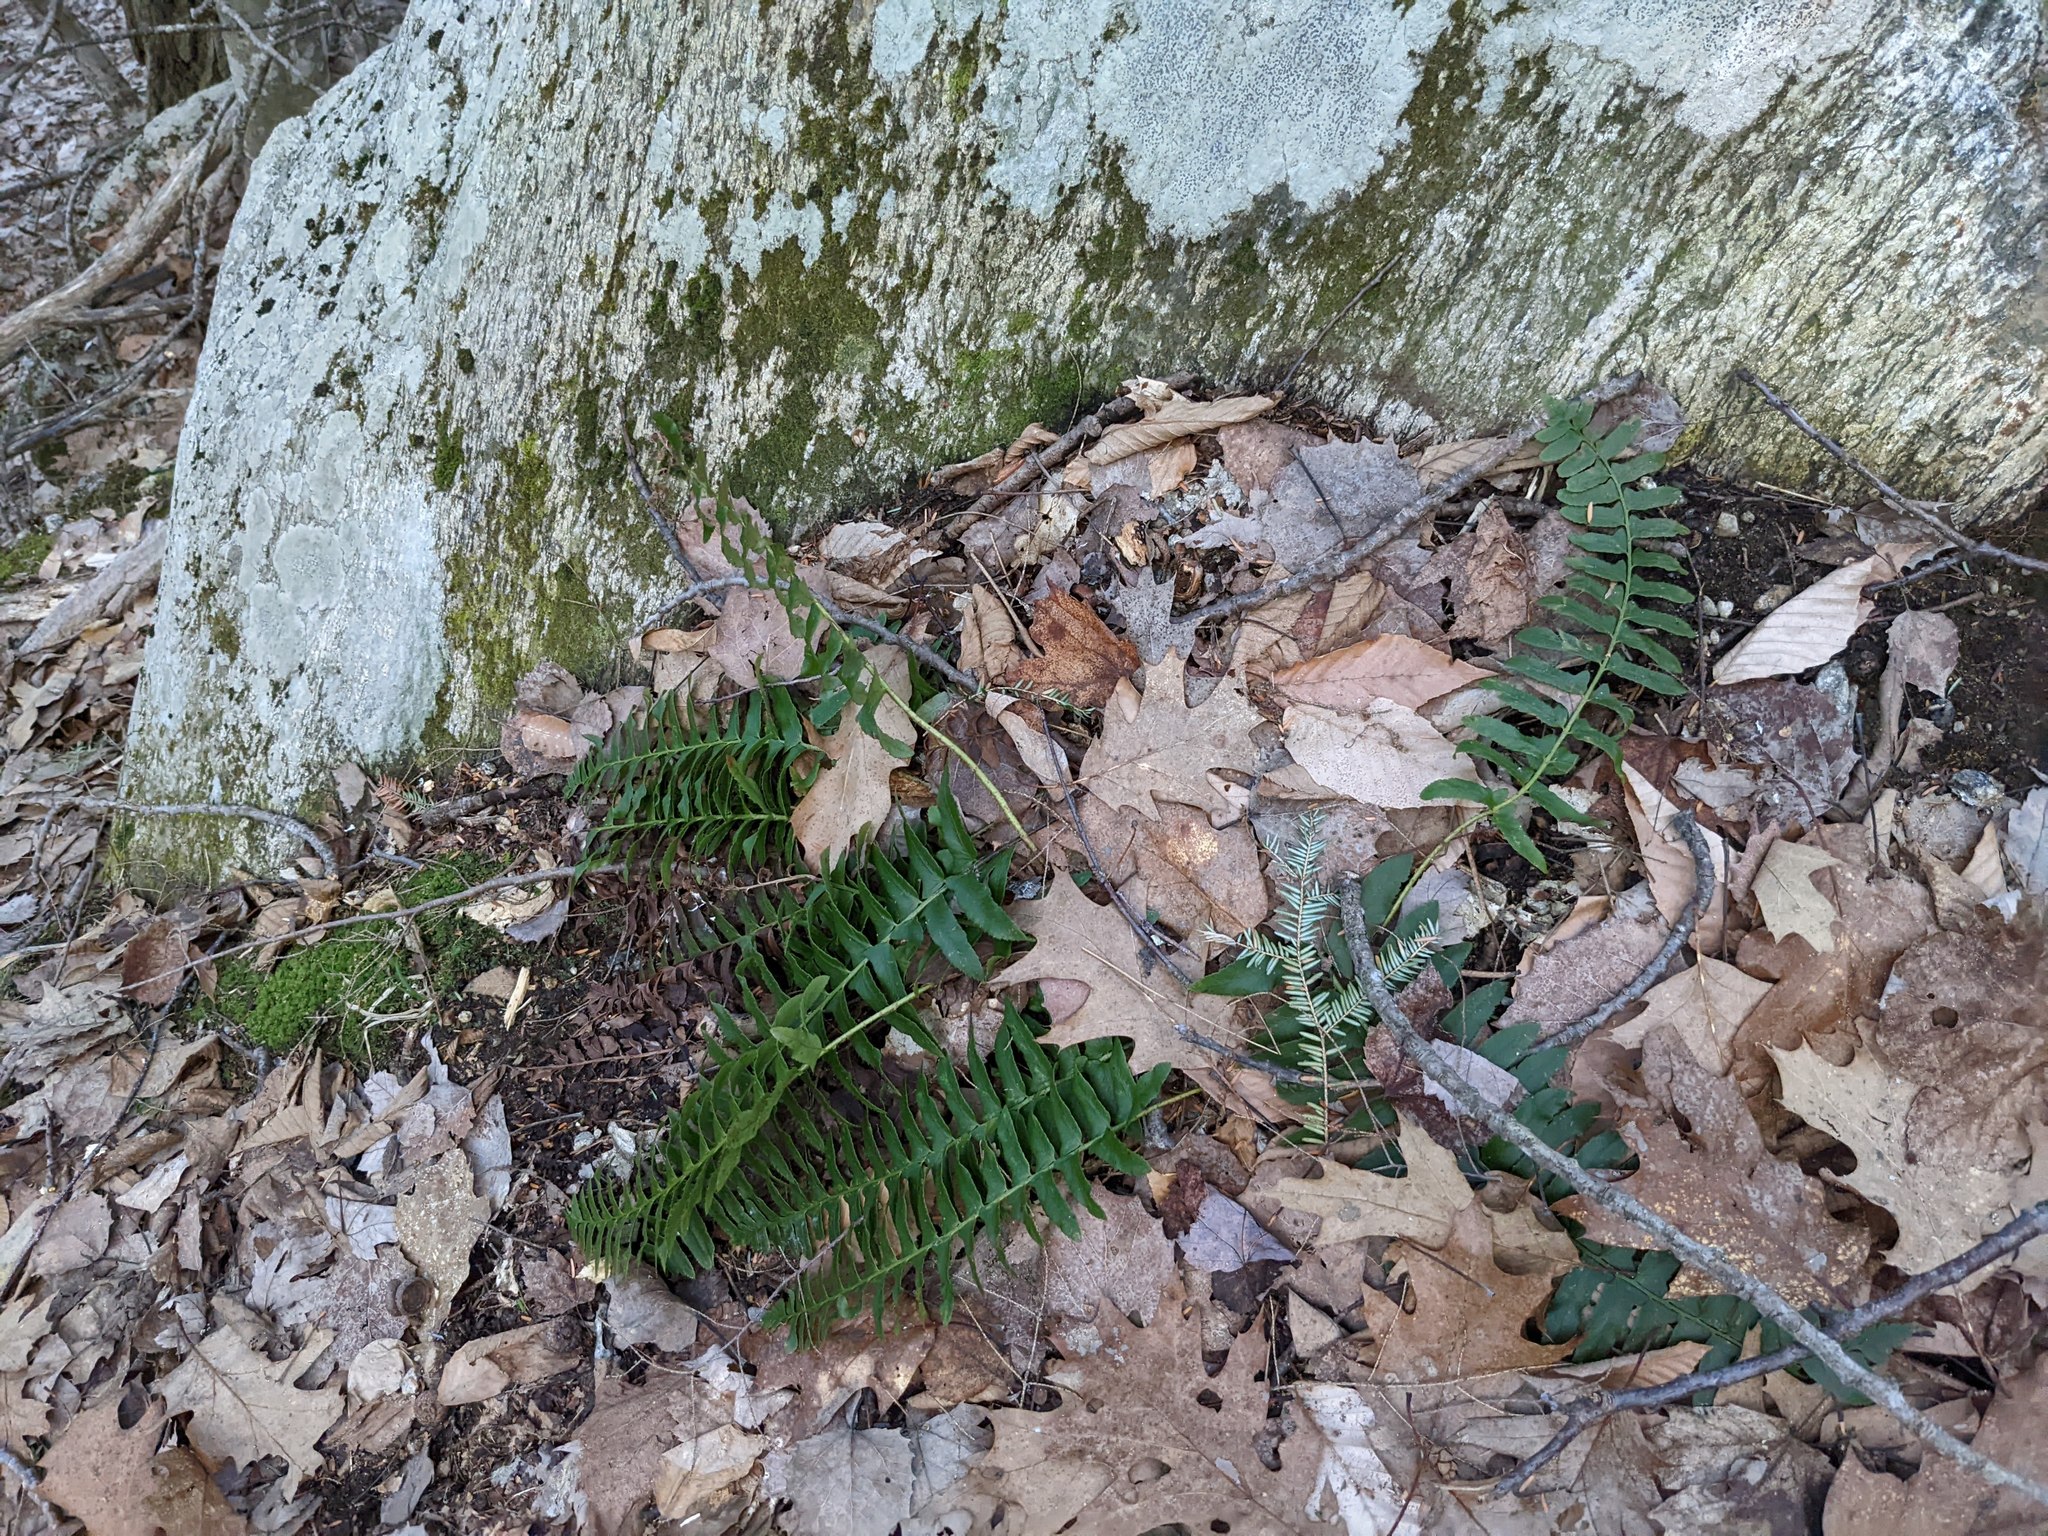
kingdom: Plantae
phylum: Tracheophyta
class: Polypodiopsida
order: Polypodiales
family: Dryopteridaceae
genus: Polystichum
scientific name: Polystichum acrostichoides
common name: Christmas fern
